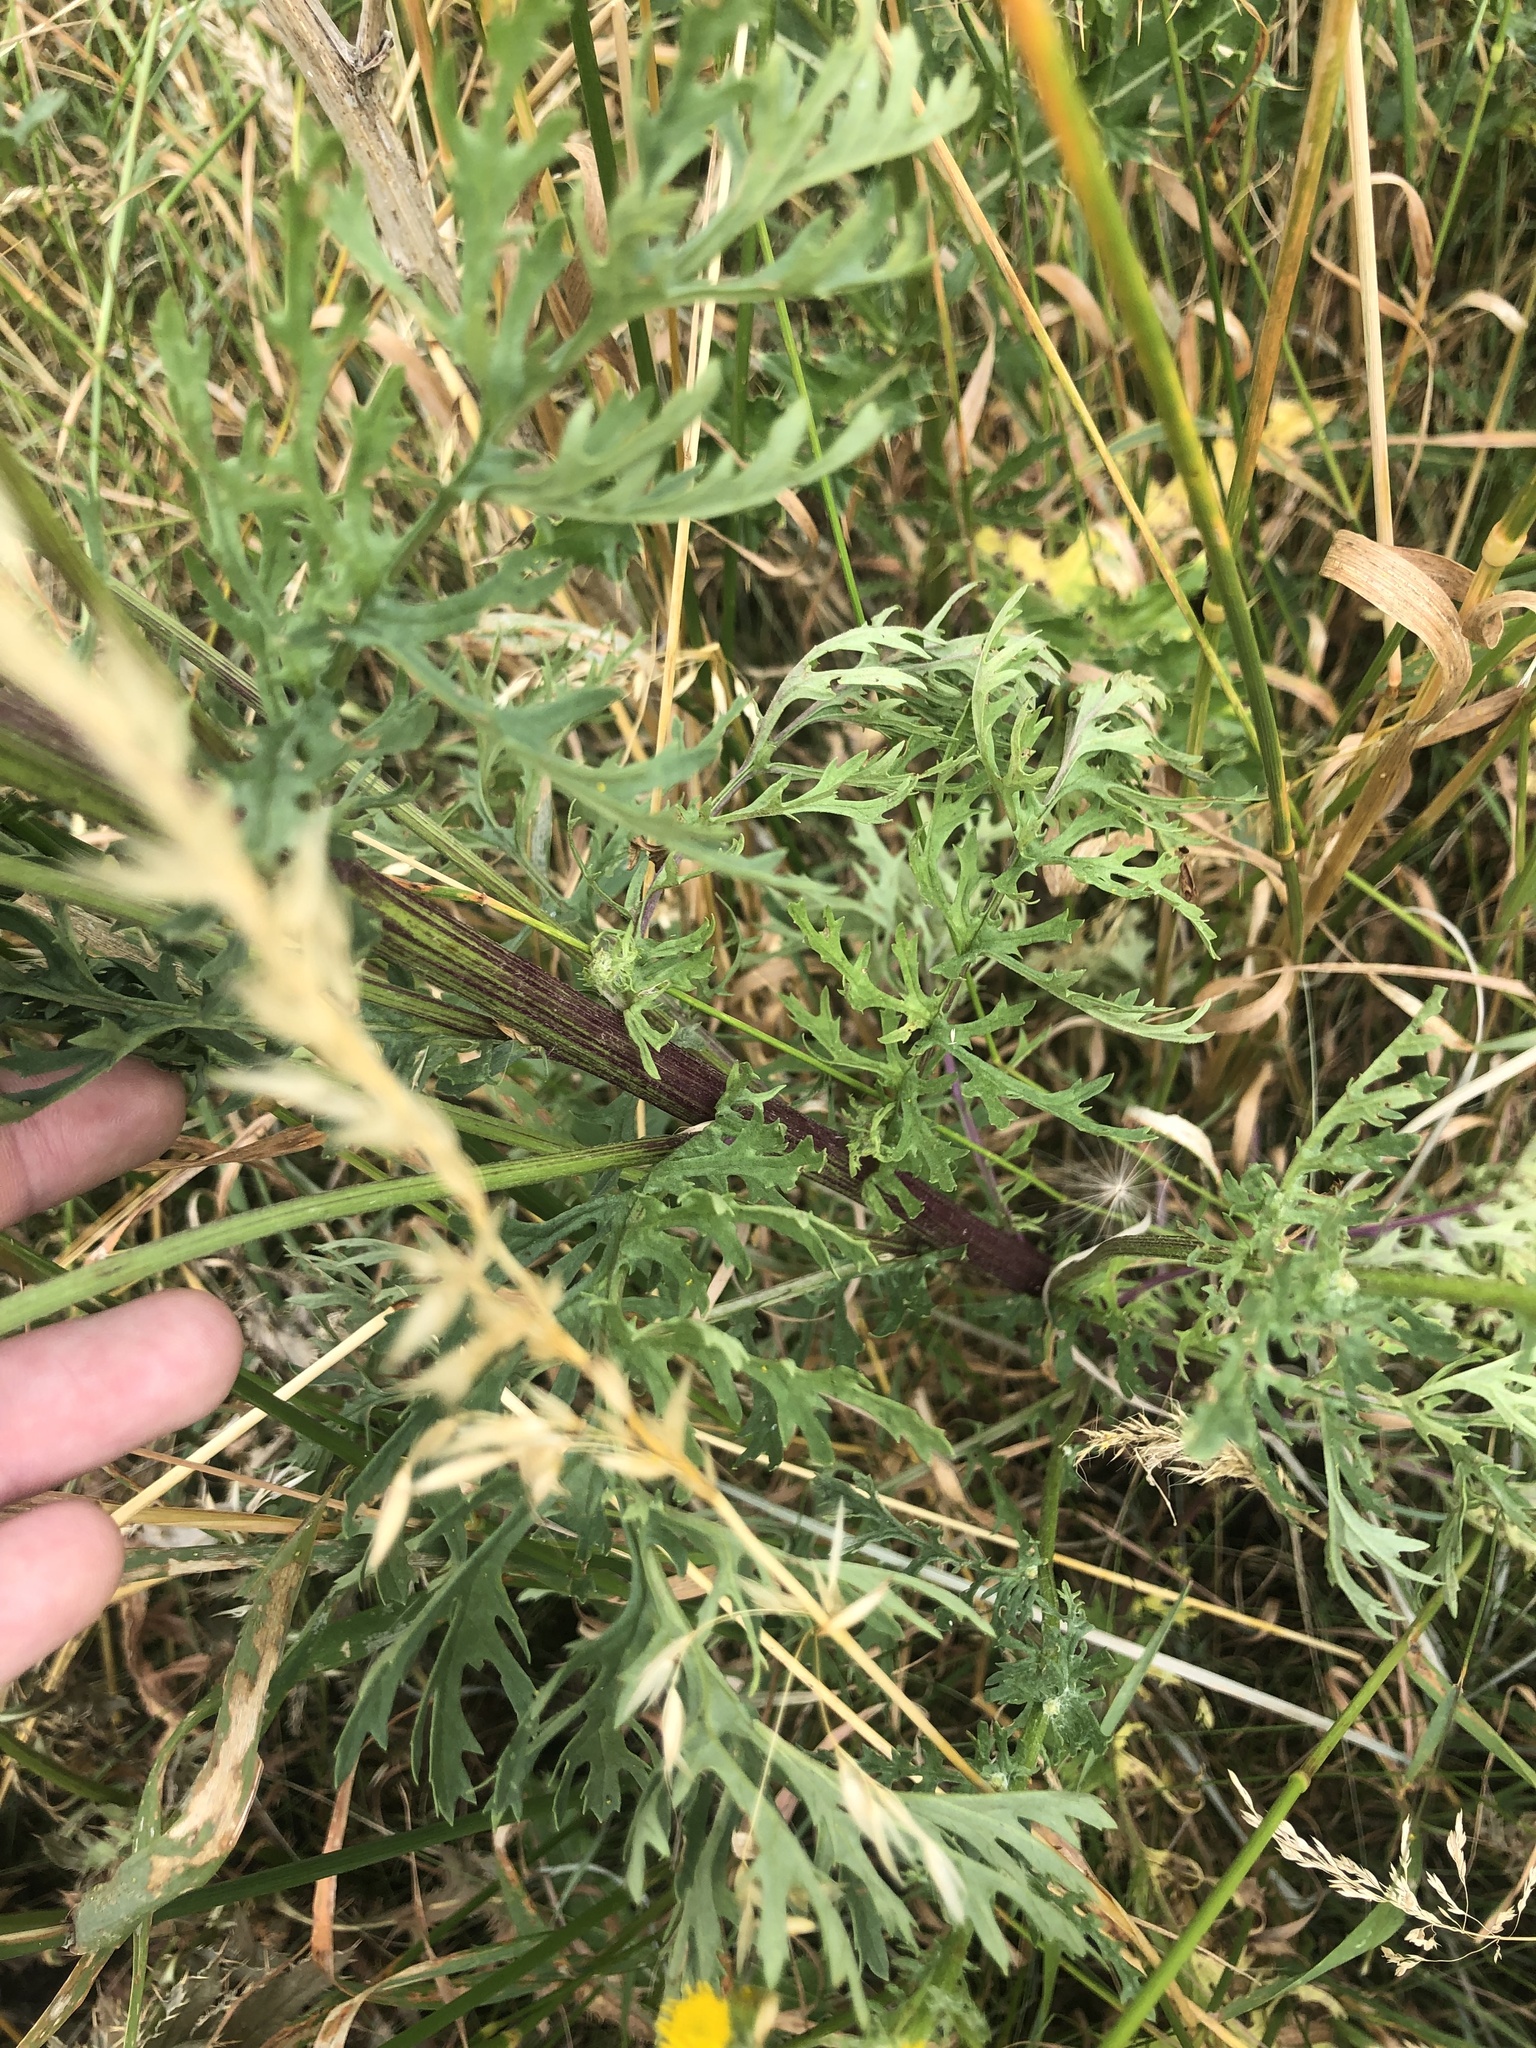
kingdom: Plantae
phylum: Tracheophyta
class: Magnoliopsida
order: Asterales
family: Asteraceae
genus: Jacobaea
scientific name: Jacobaea vulgaris
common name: Stinking willie
